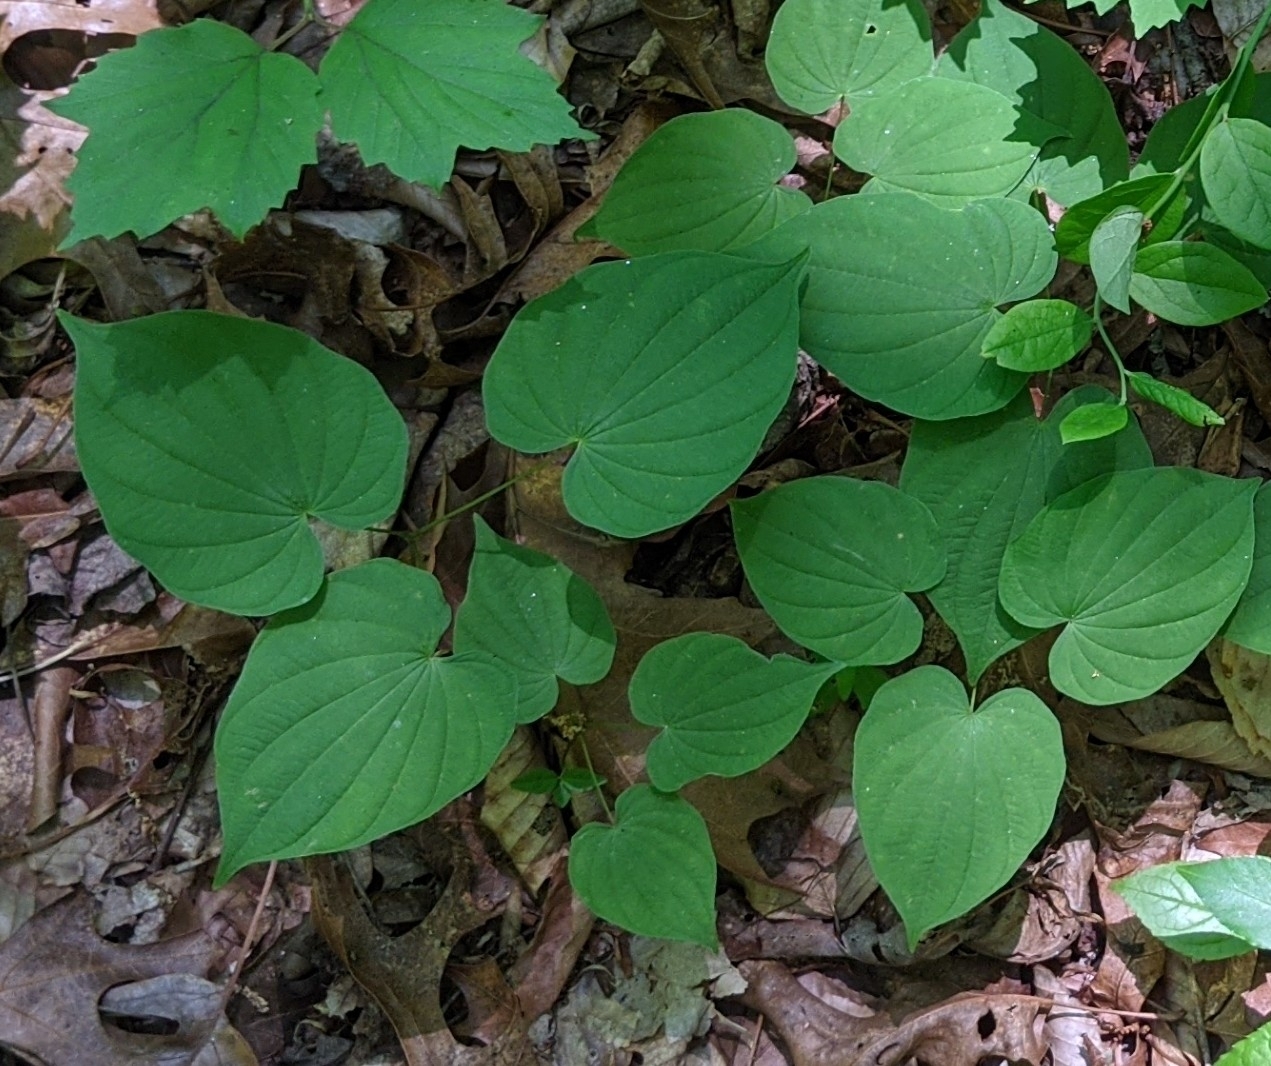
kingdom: Plantae
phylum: Tracheophyta
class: Liliopsida
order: Dioscoreales
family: Dioscoreaceae
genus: Dioscorea
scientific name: Dioscorea villosa
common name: Wild yam
